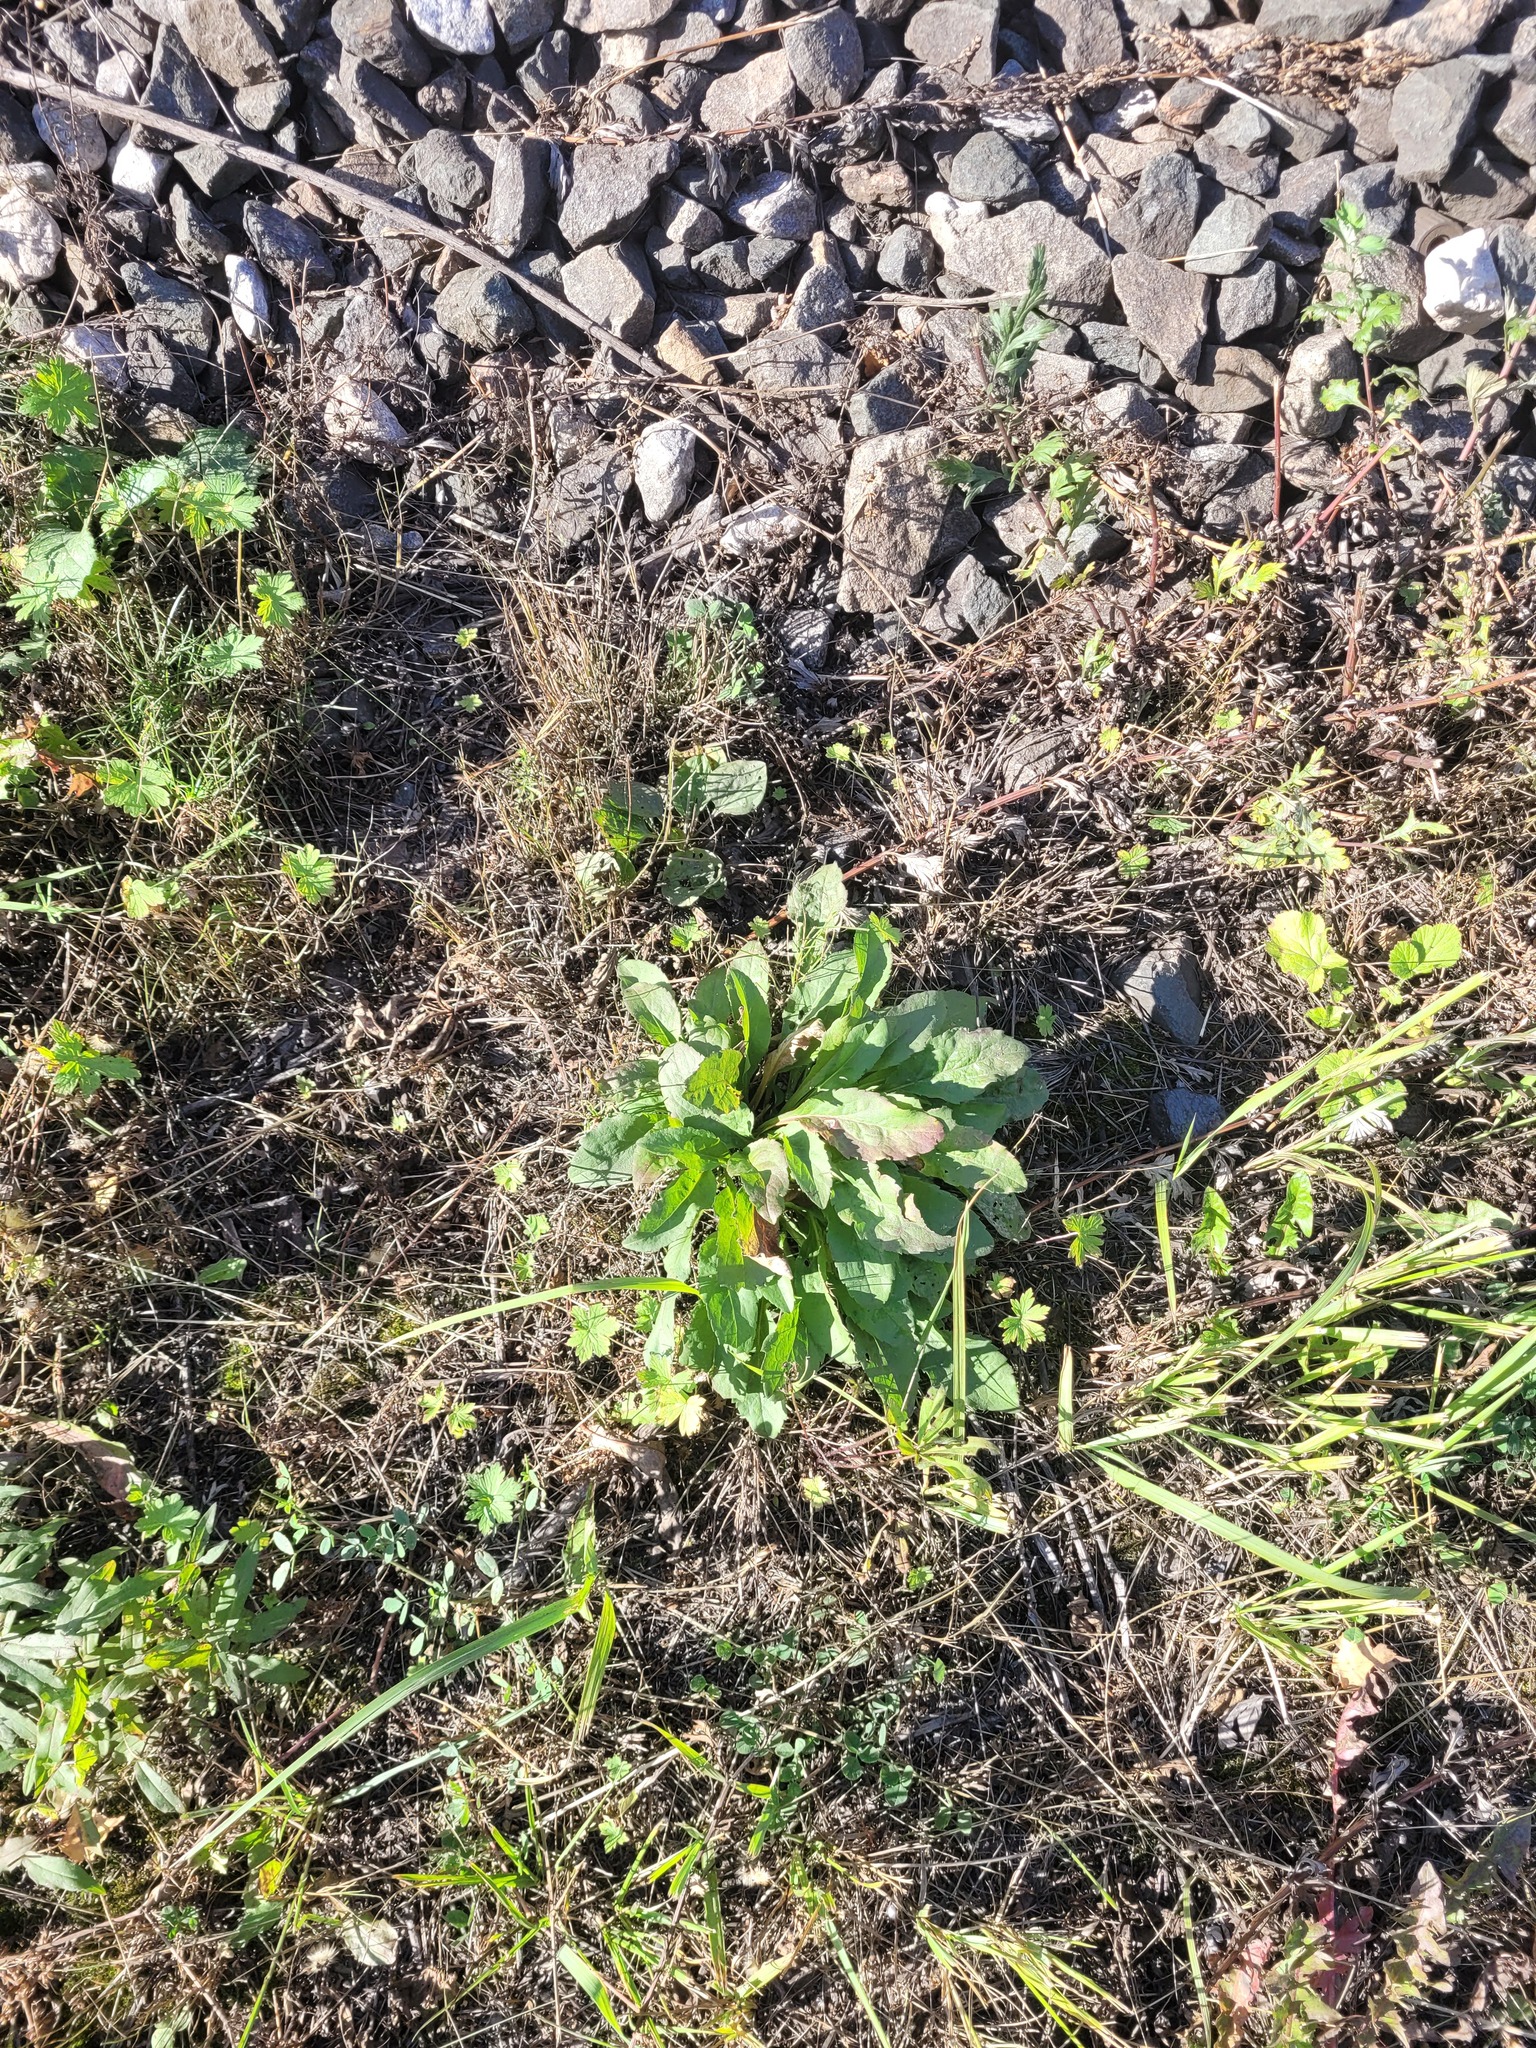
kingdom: Plantae
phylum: Tracheophyta
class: Magnoliopsida
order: Asterales
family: Asteraceae
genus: Solidago
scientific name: Solidago virgaurea
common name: Goldenrod
